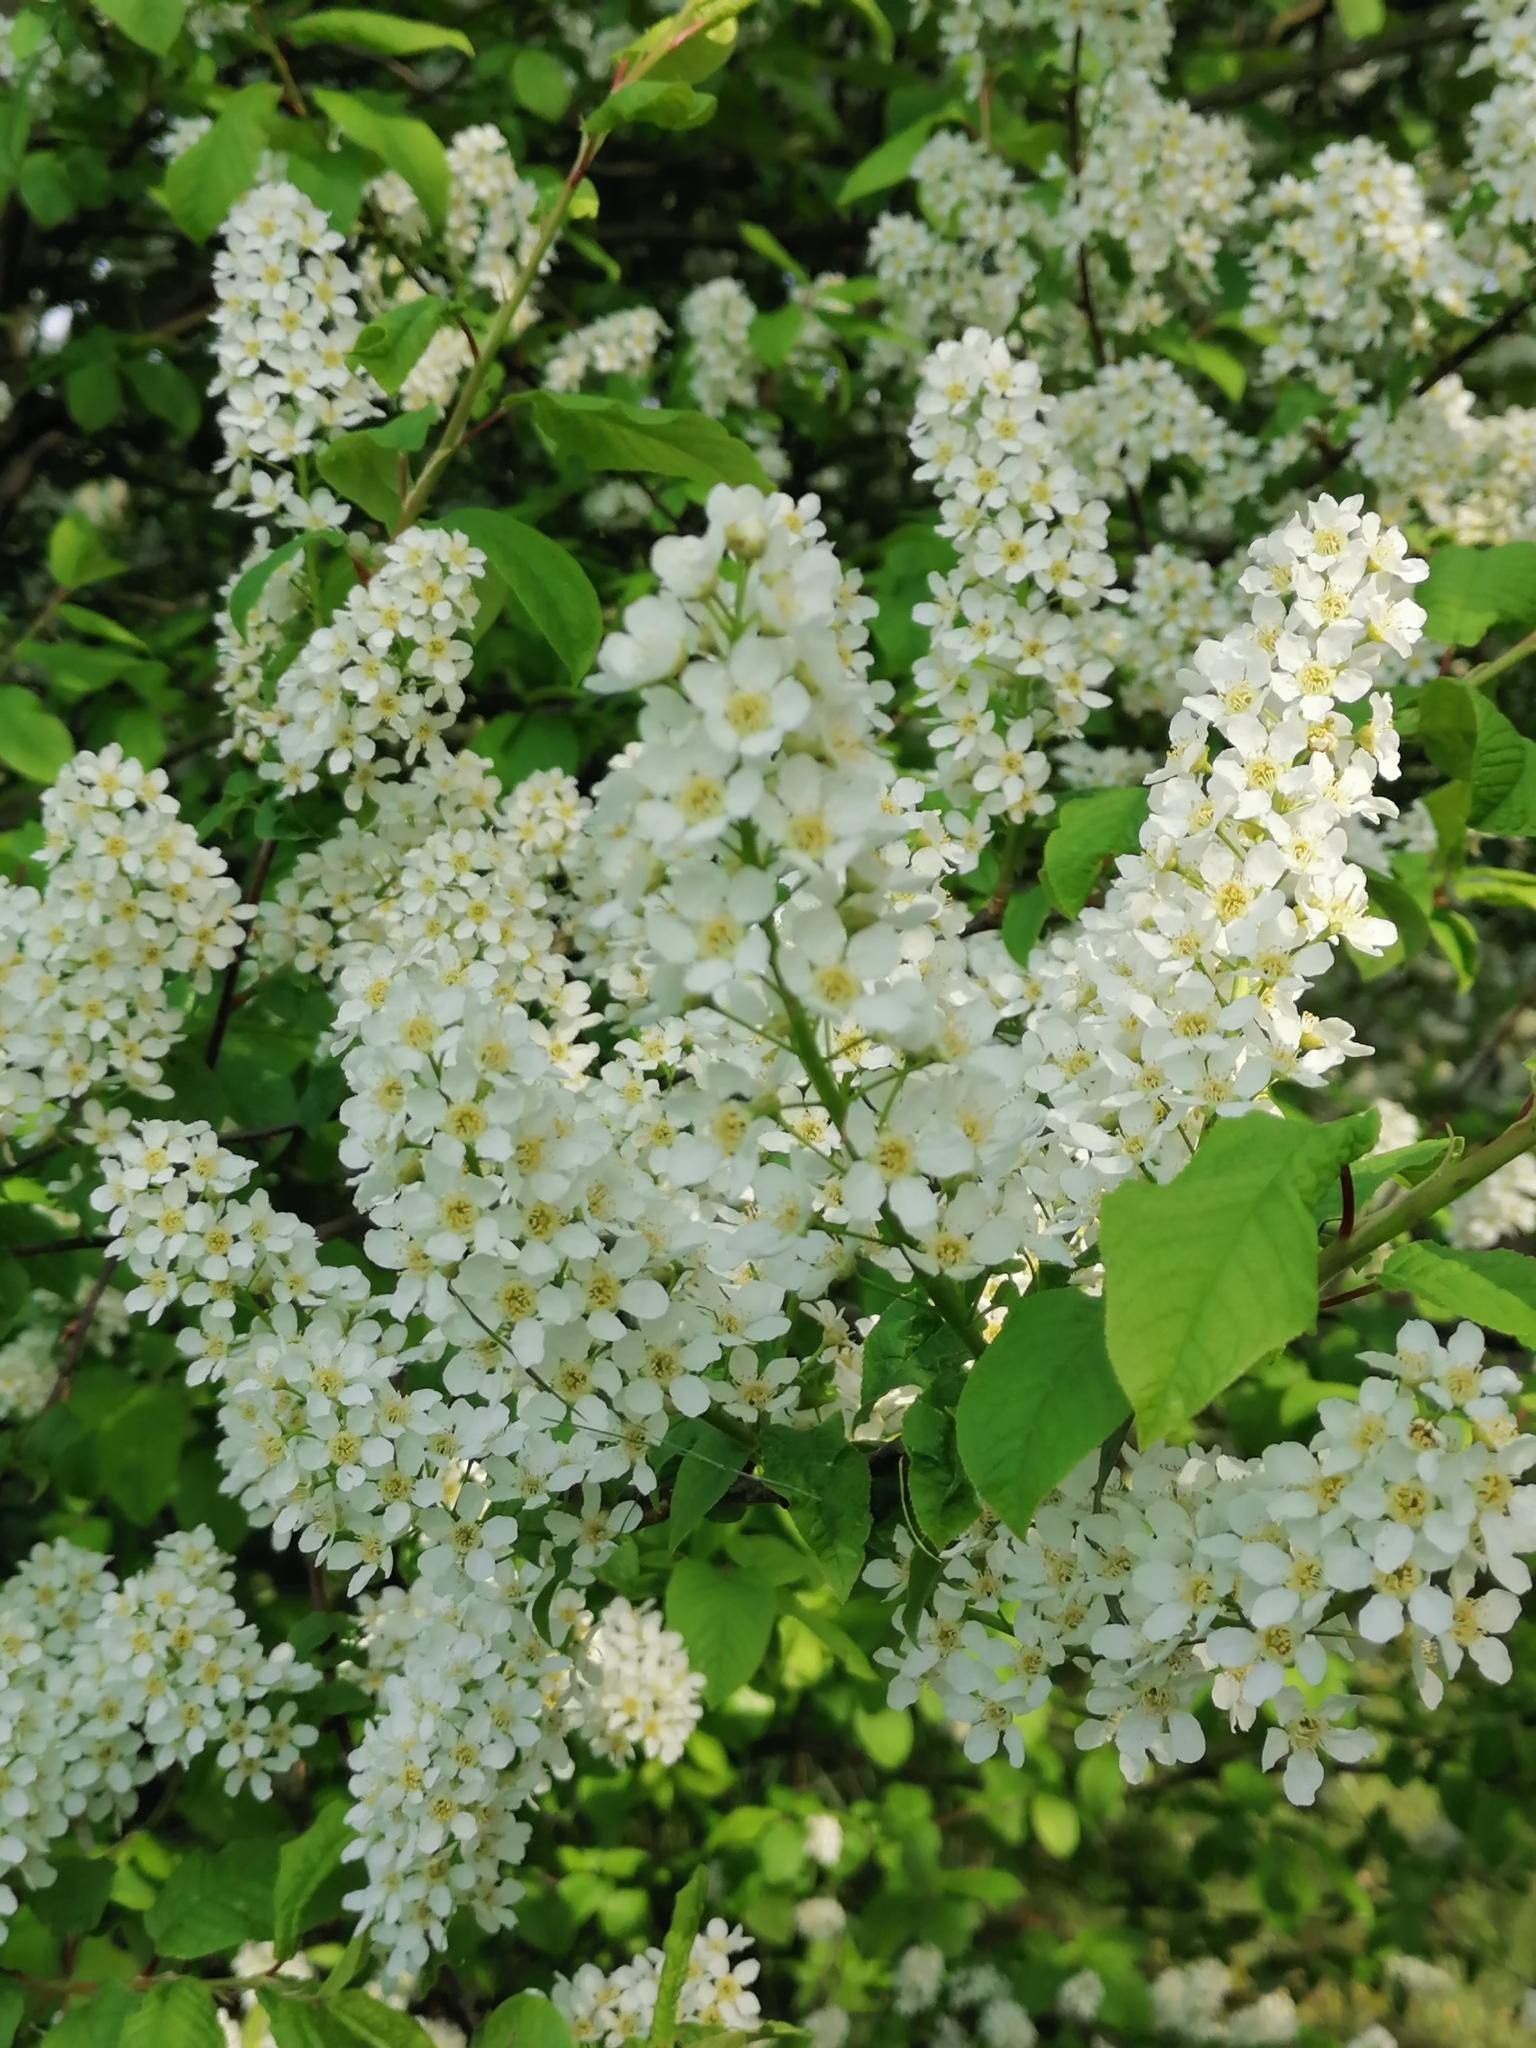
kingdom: Plantae
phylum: Tracheophyta
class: Magnoliopsida
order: Rosales
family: Rosaceae
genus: Prunus
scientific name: Prunus padus
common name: Bird cherry
